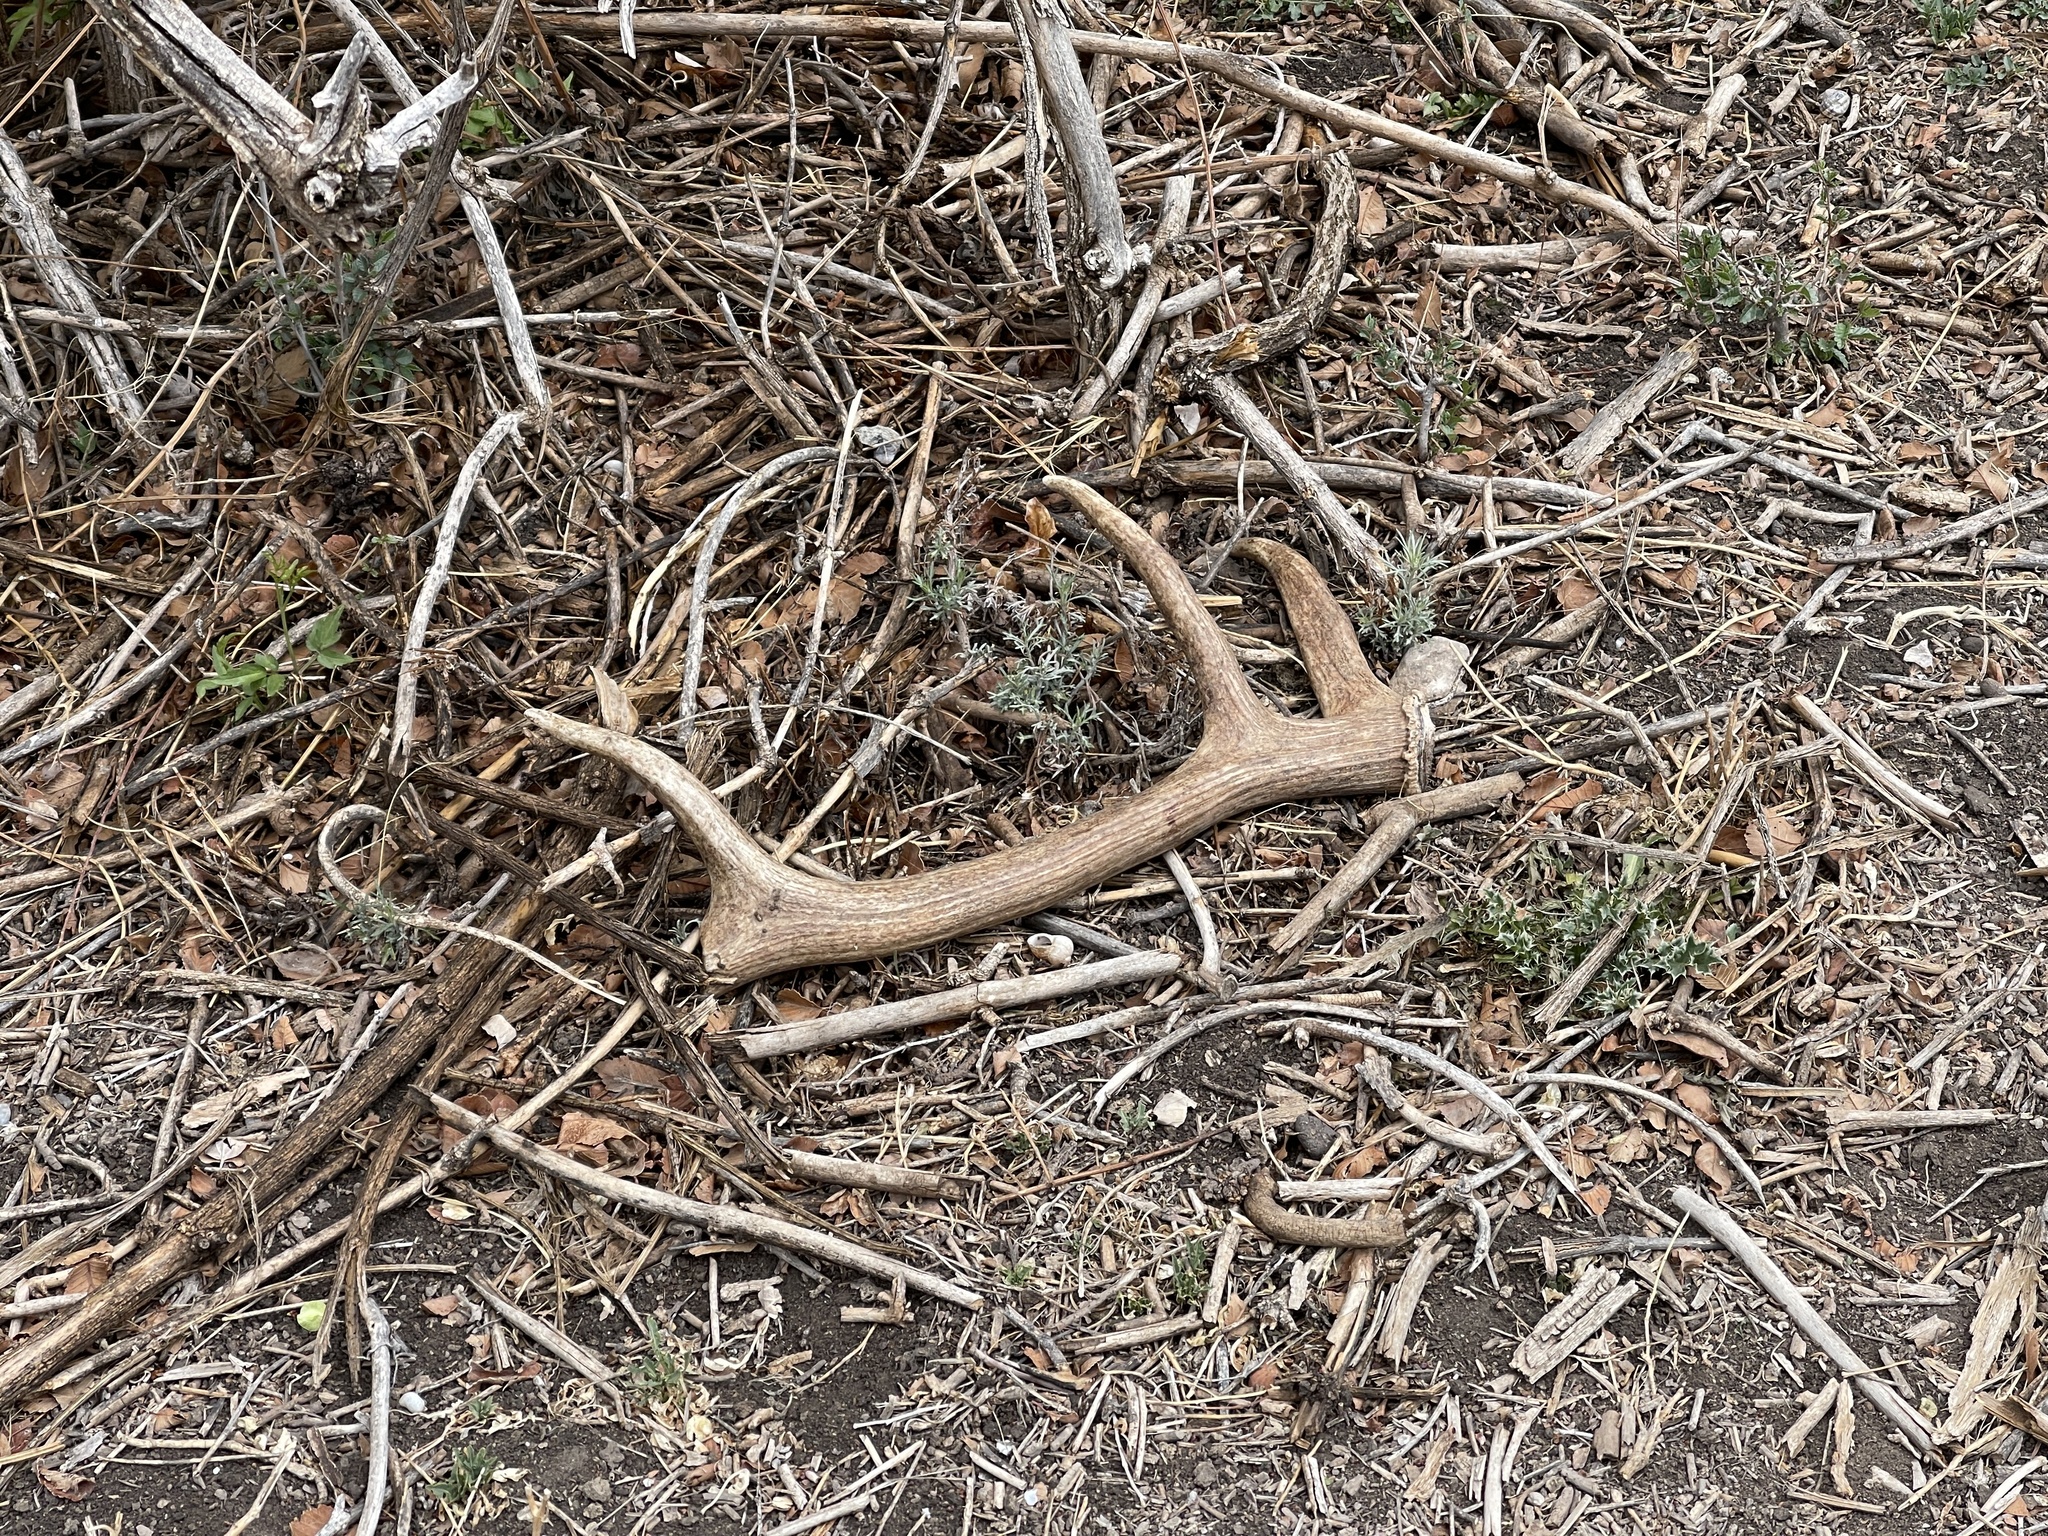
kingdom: Animalia
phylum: Chordata
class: Mammalia
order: Artiodactyla
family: Cervidae
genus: Cervus
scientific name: Cervus elaphus
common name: Red deer
